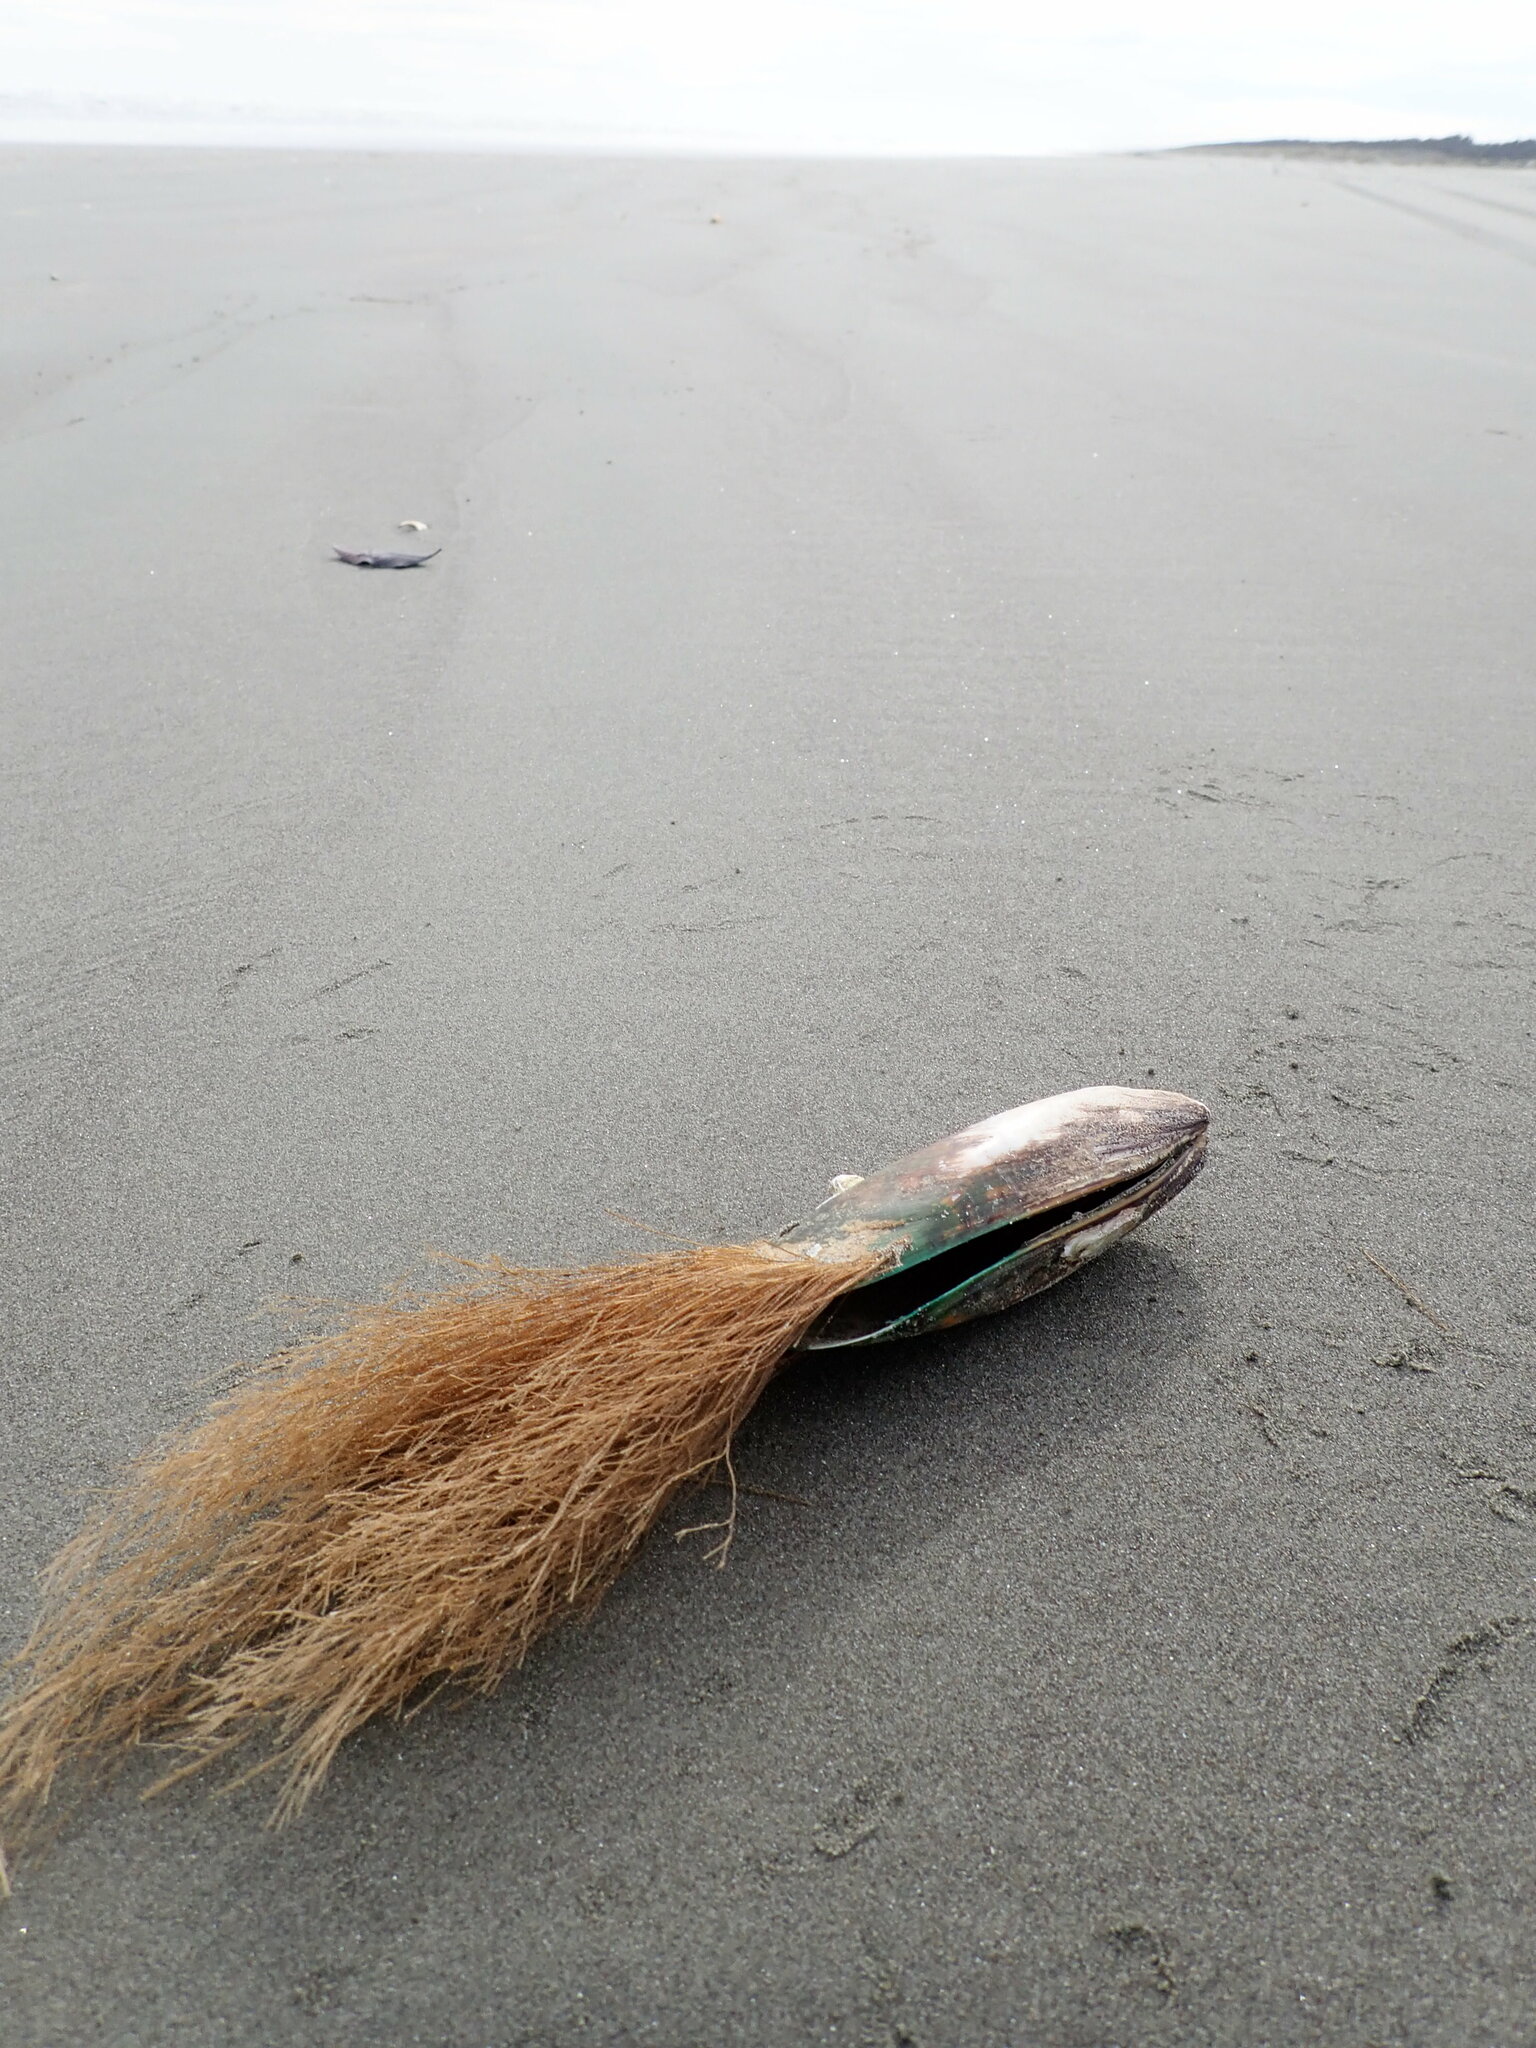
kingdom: Animalia
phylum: Mollusca
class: Bivalvia
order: Mytilida
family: Mytilidae
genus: Perna
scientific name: Perna canaliculus
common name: New zealand greenshelltm
